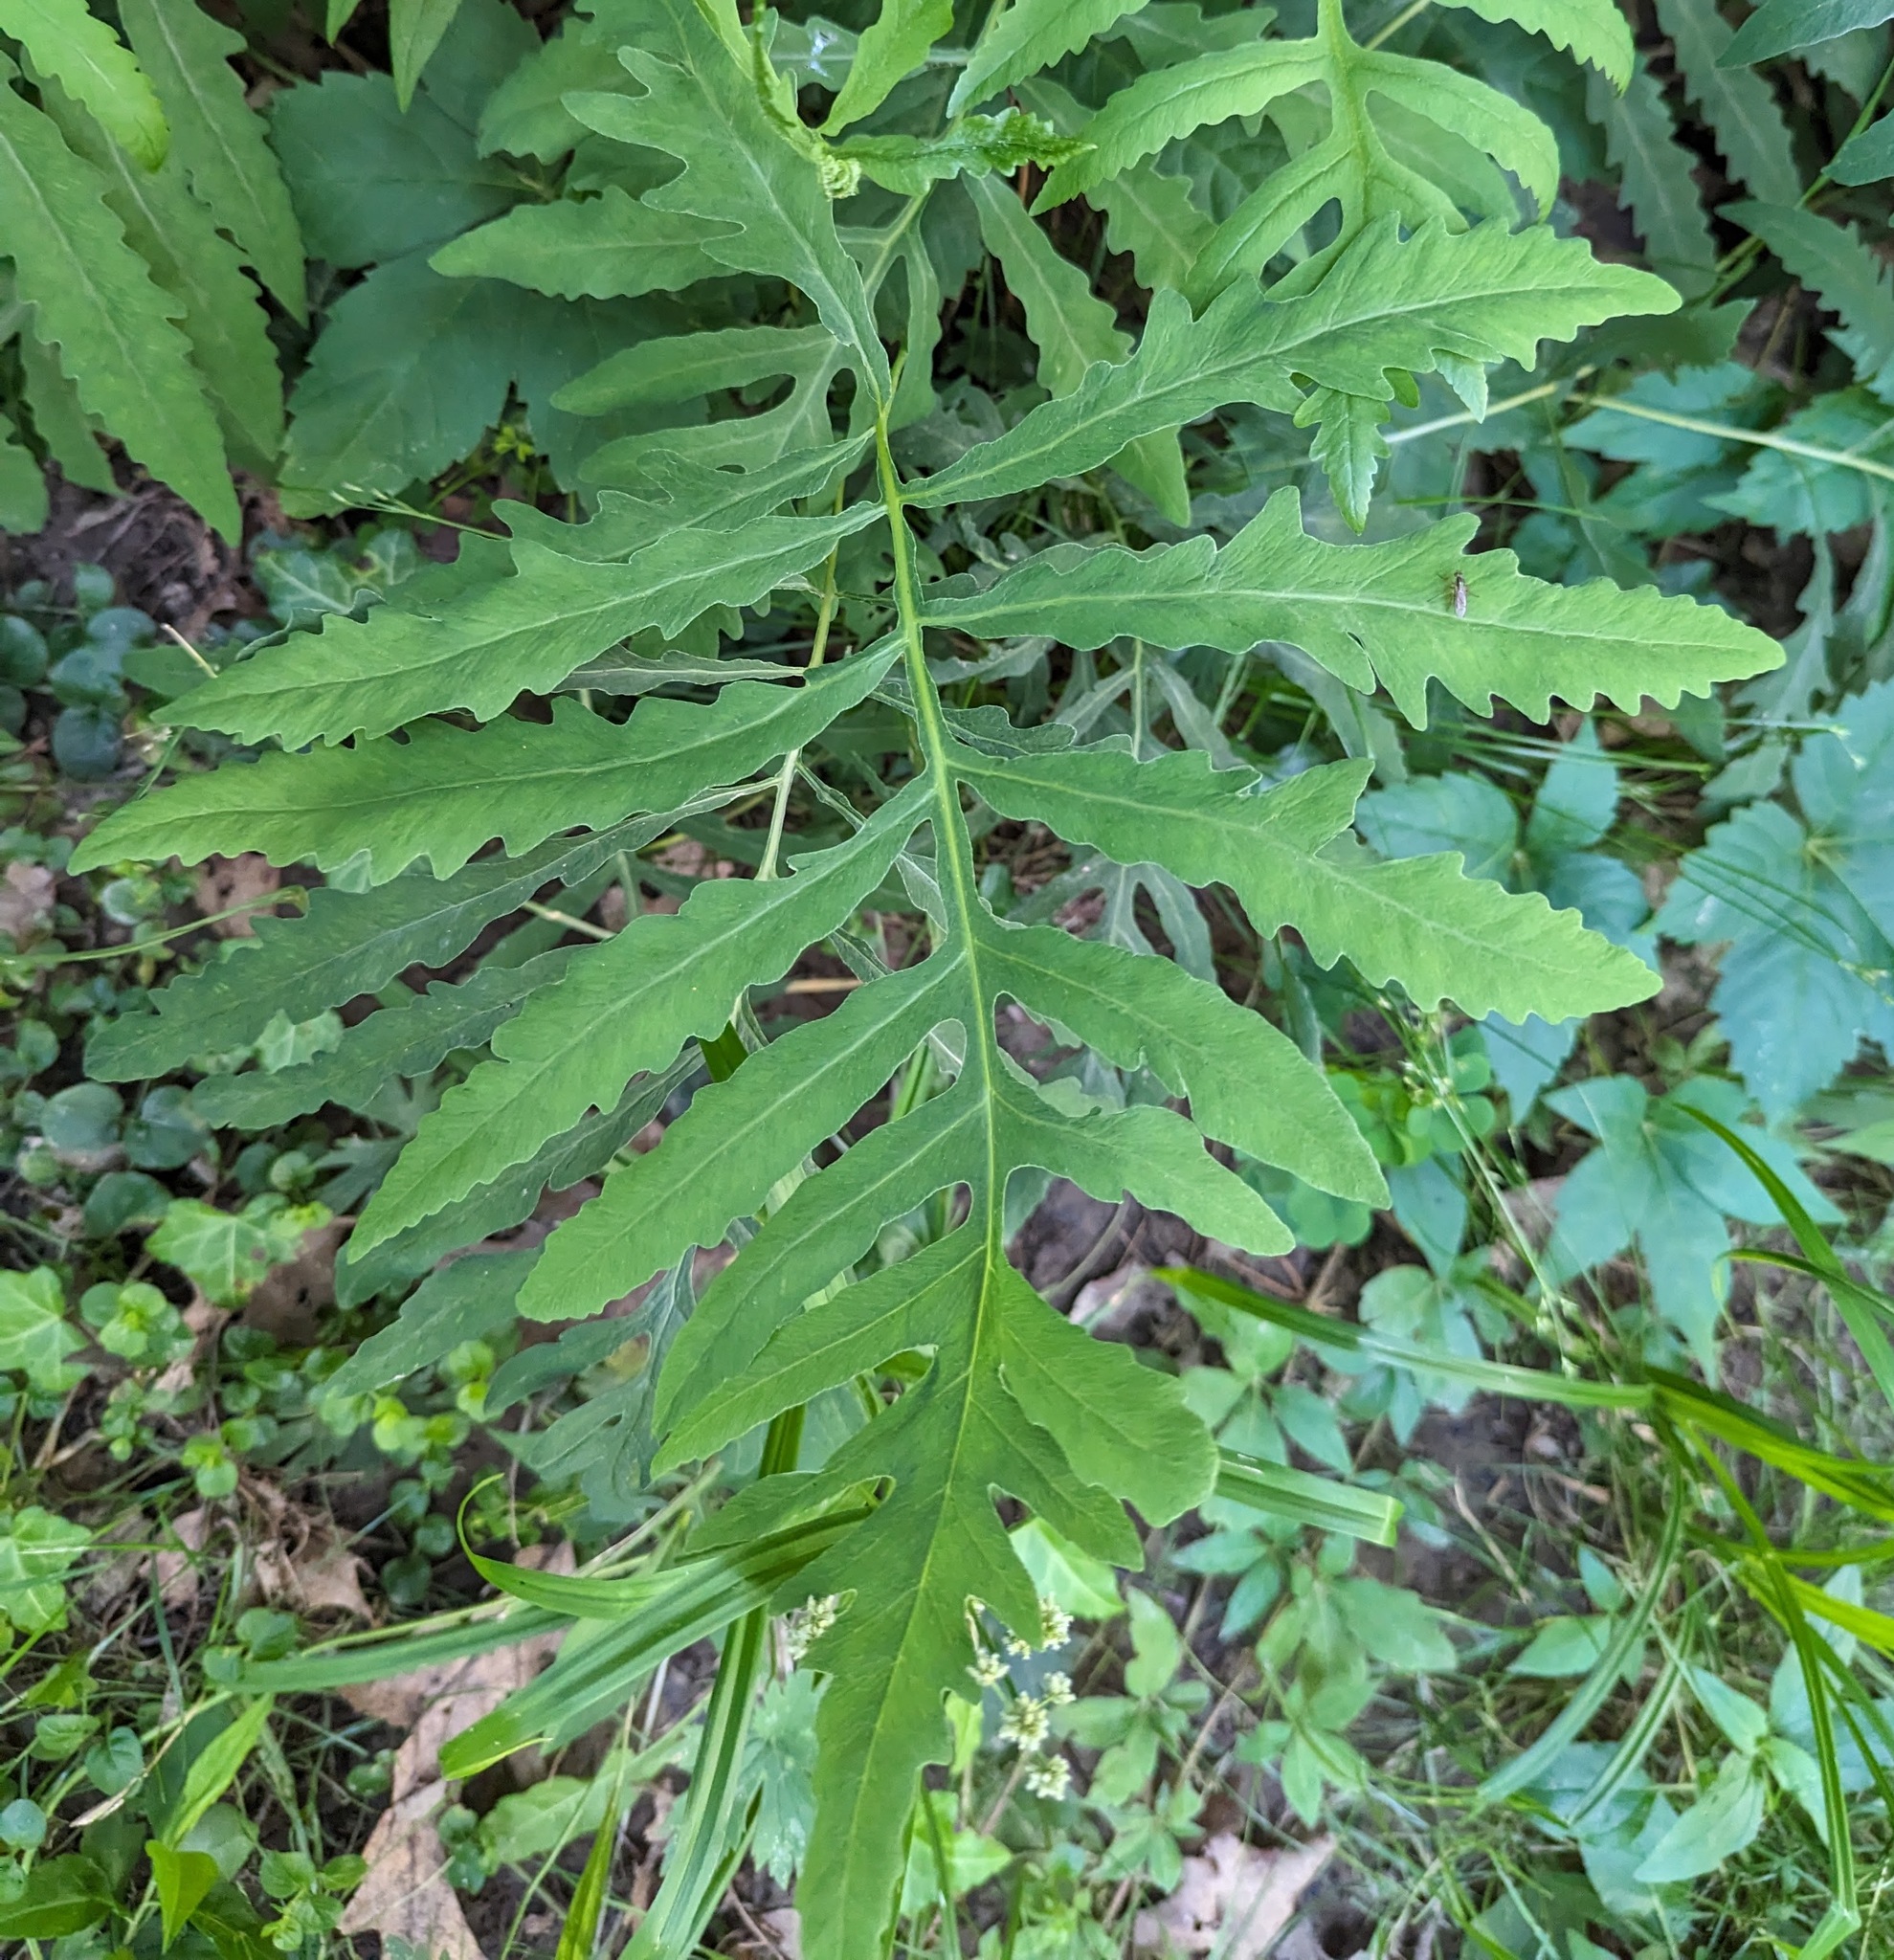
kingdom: Plantae
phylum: Tracheophyta
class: Polypodiopsida
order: Polypodiales
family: Onocleaceae
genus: Onoclea
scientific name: Onoclea sensibilis
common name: Sensitive fern
